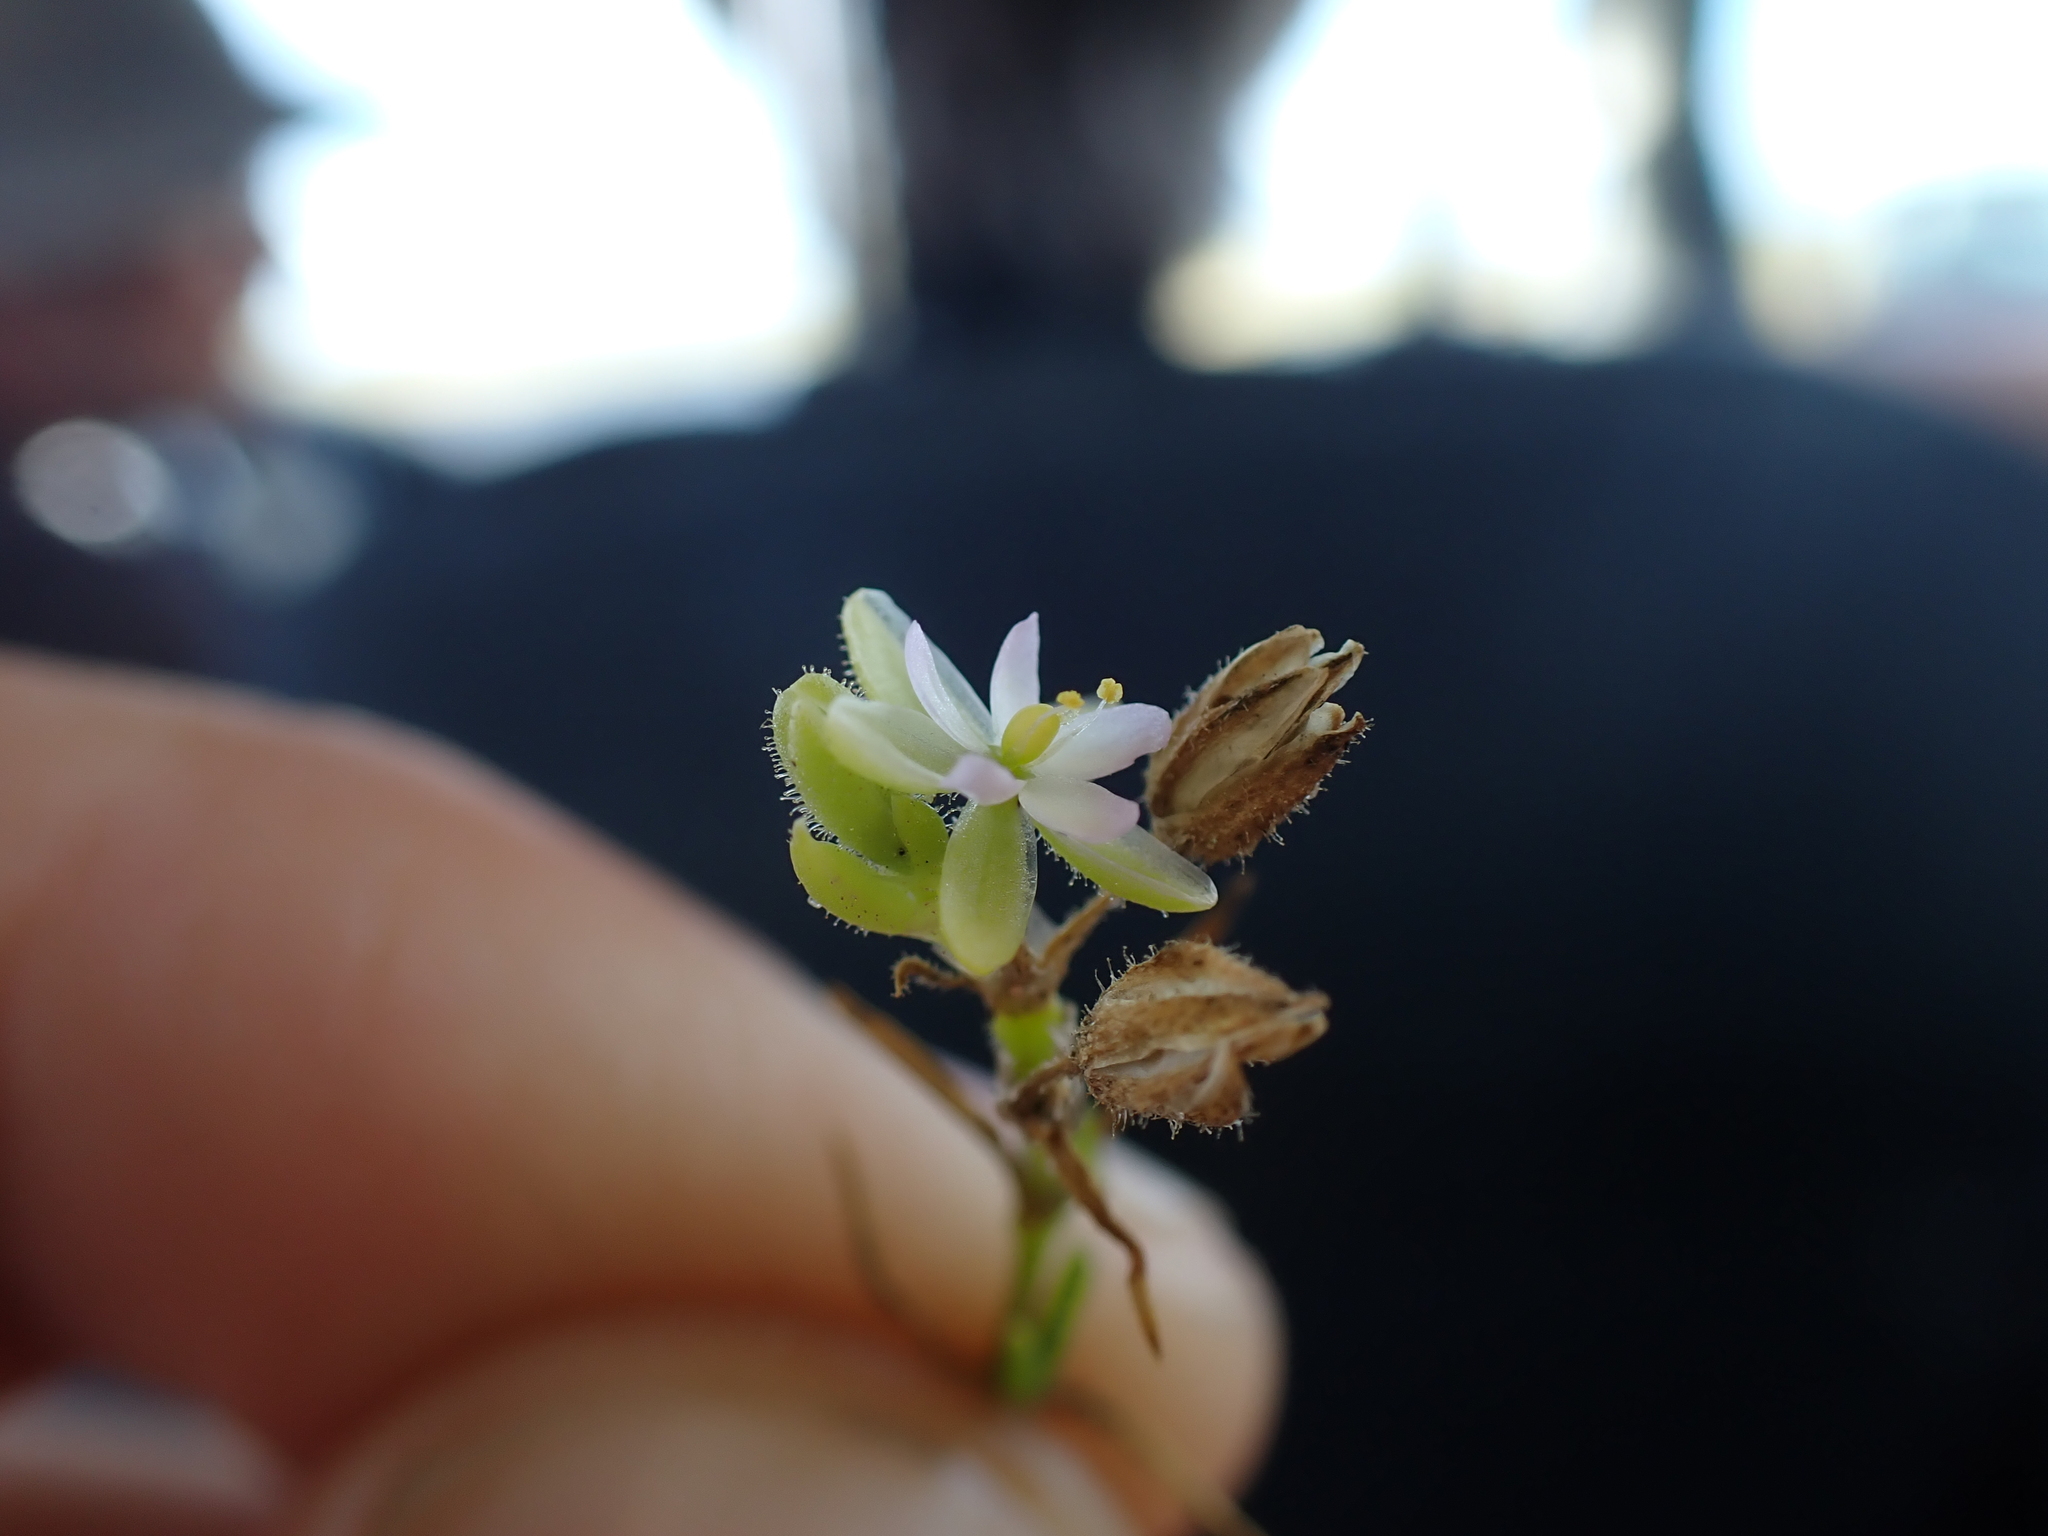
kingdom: Plantae
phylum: Tracheophyta
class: Magnoliopsida
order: Caryophyllales
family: Caryophyllaceae
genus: Spergularia
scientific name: Spergularia marina
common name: Lesser sea-spurrey
